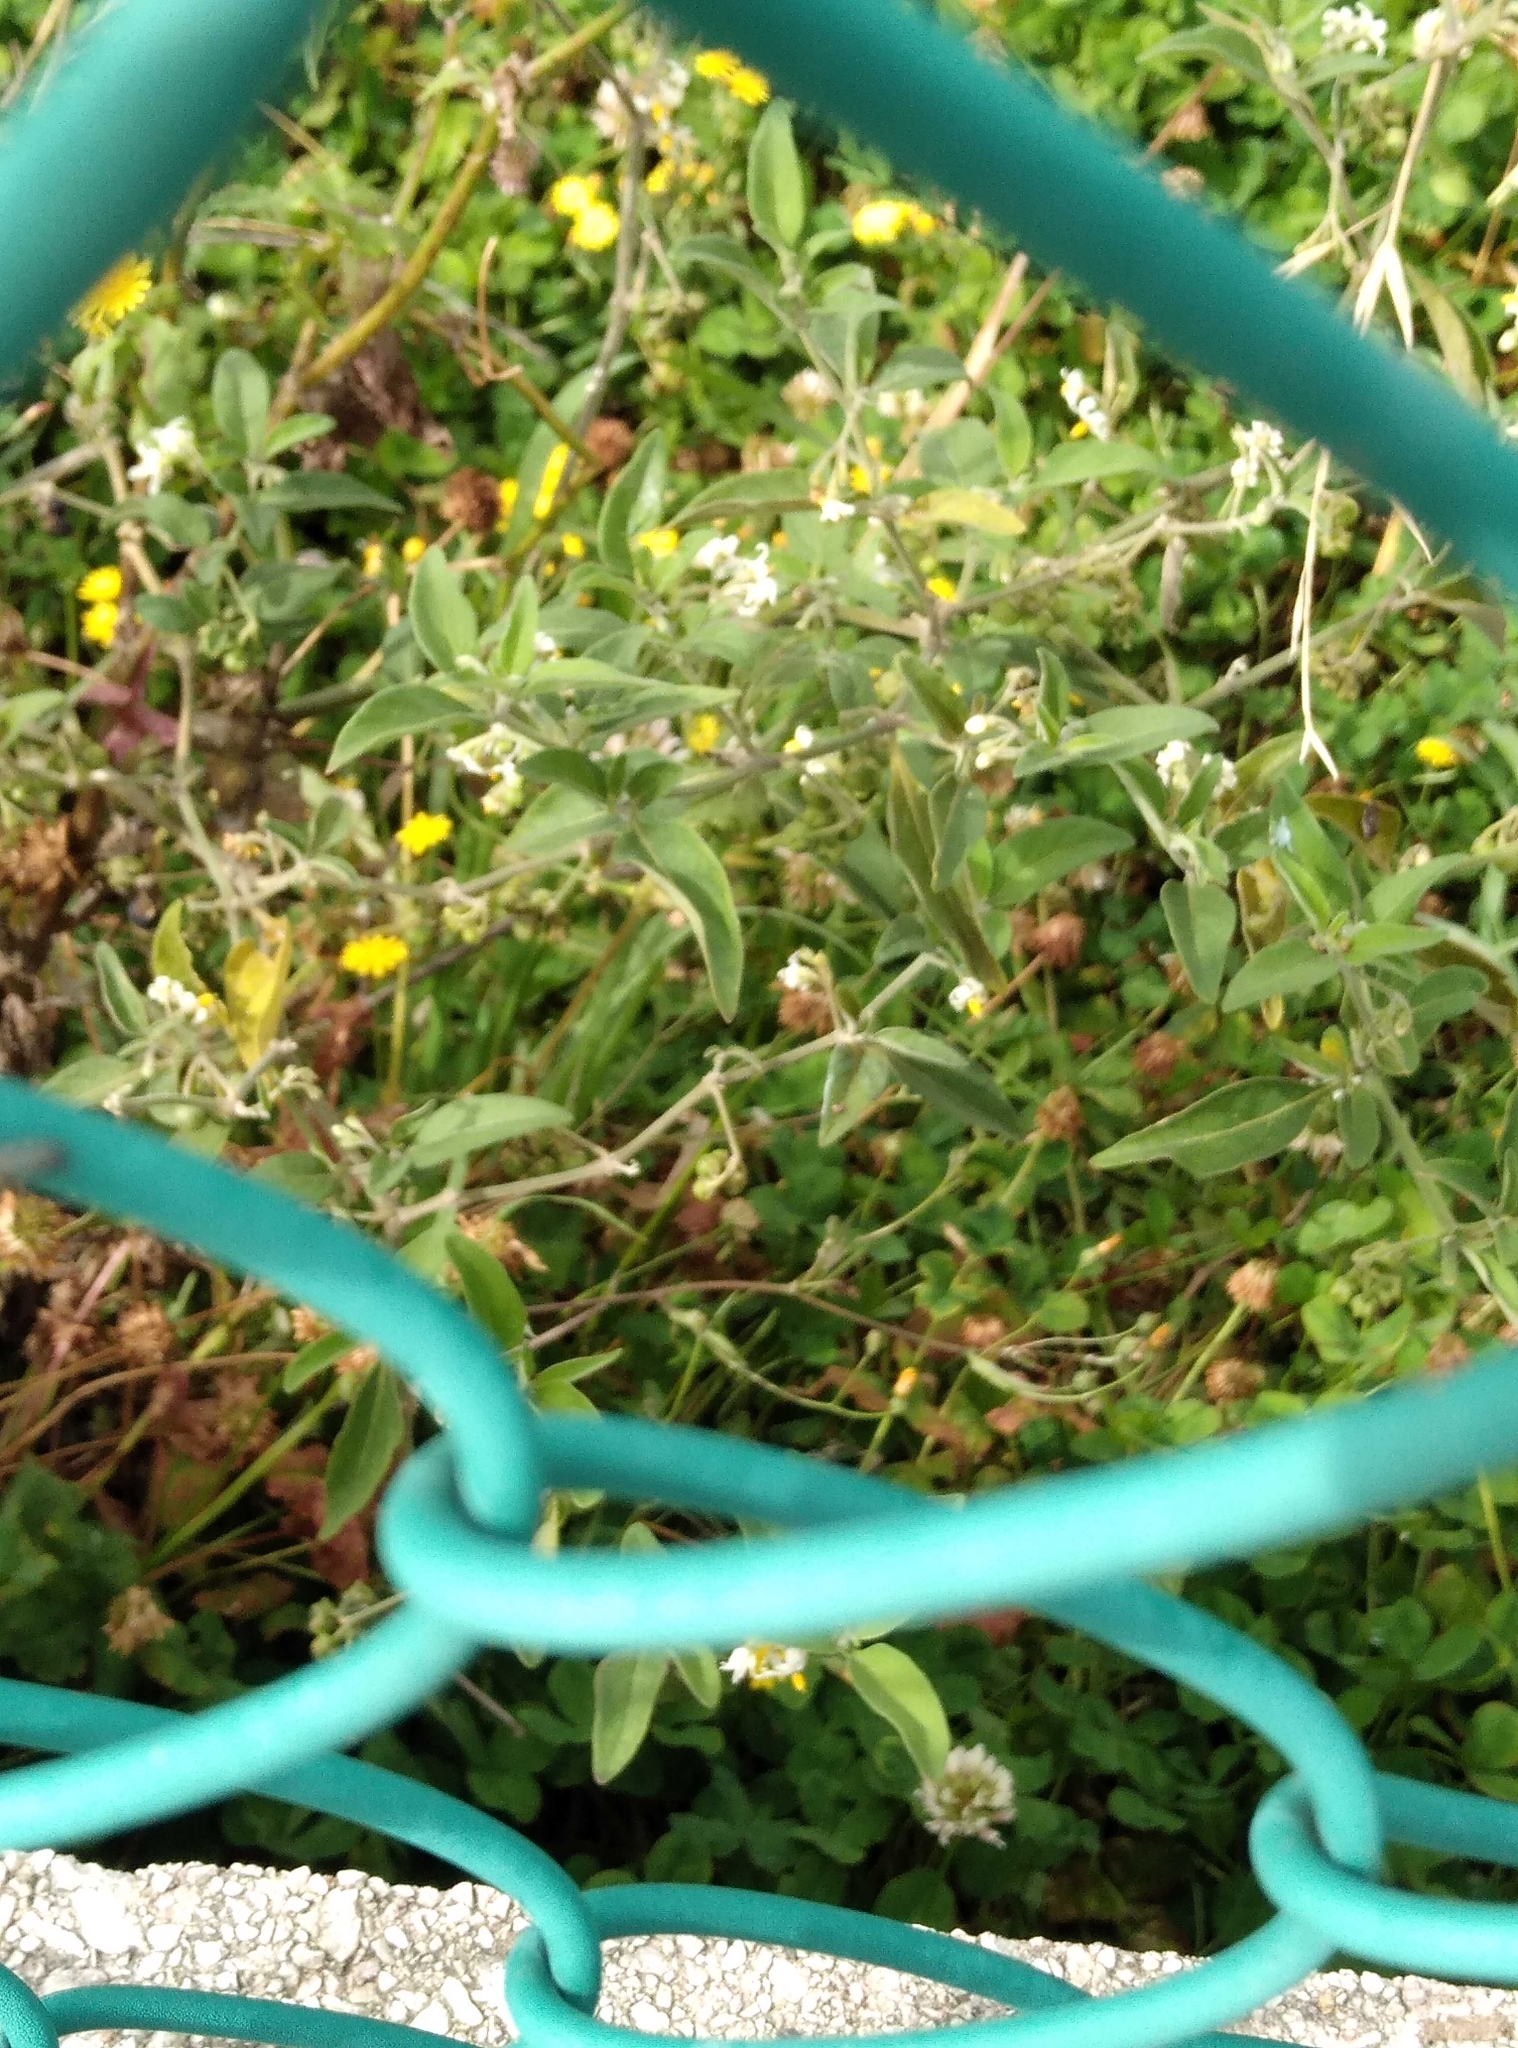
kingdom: Plantae
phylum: Tracheophyta
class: Magnoliopsida
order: Solanales
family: Solanaceae
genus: Solanum
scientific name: Solanum chenopodioides
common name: Tall nightshade
